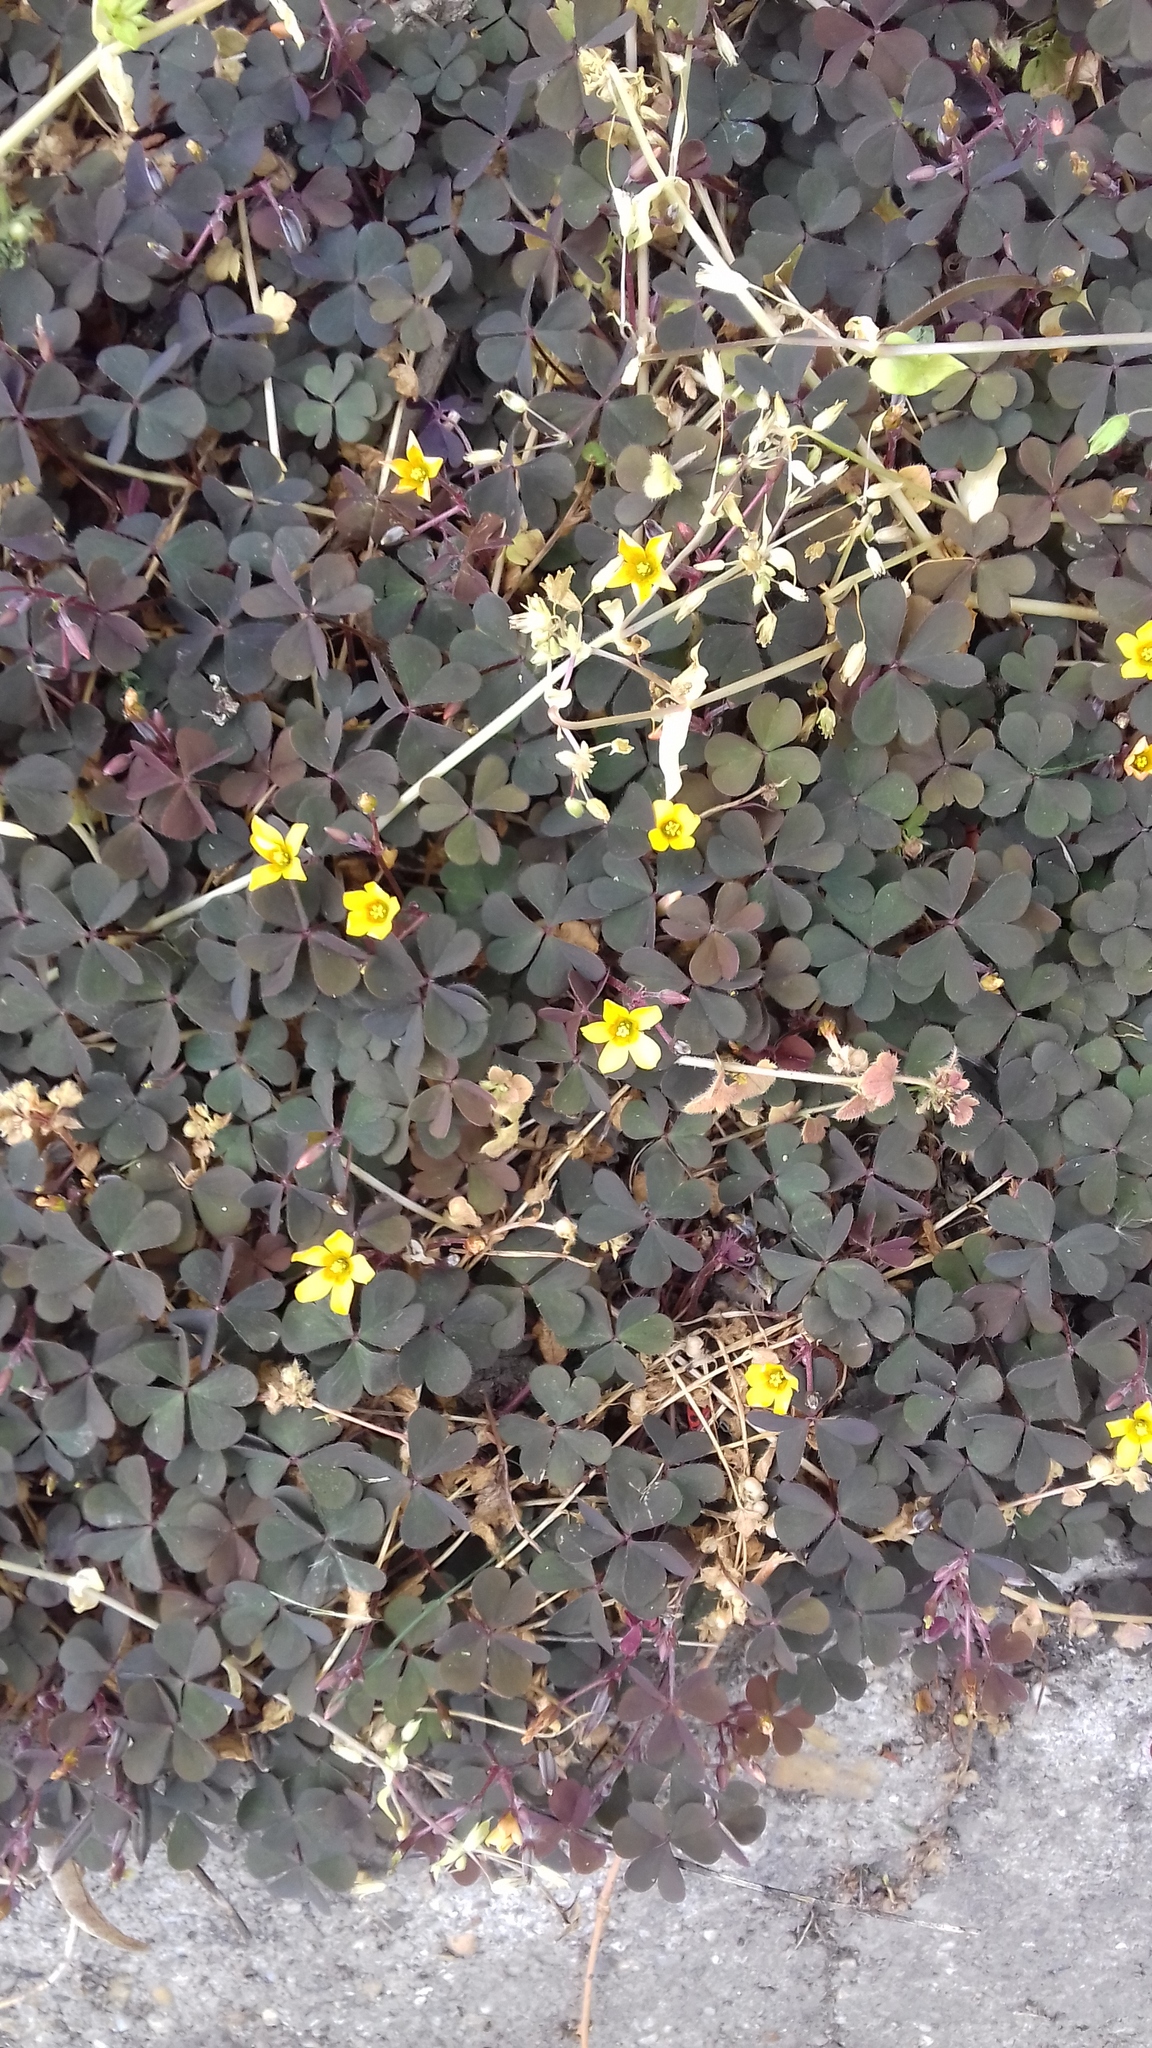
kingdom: Plantae
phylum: Tracheophyta
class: Magnoliopsida
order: Oxalidales
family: Oxalidaceae
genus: Oxalis
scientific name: Oxalis corniculata
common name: Procumbent yellow-sorrel
